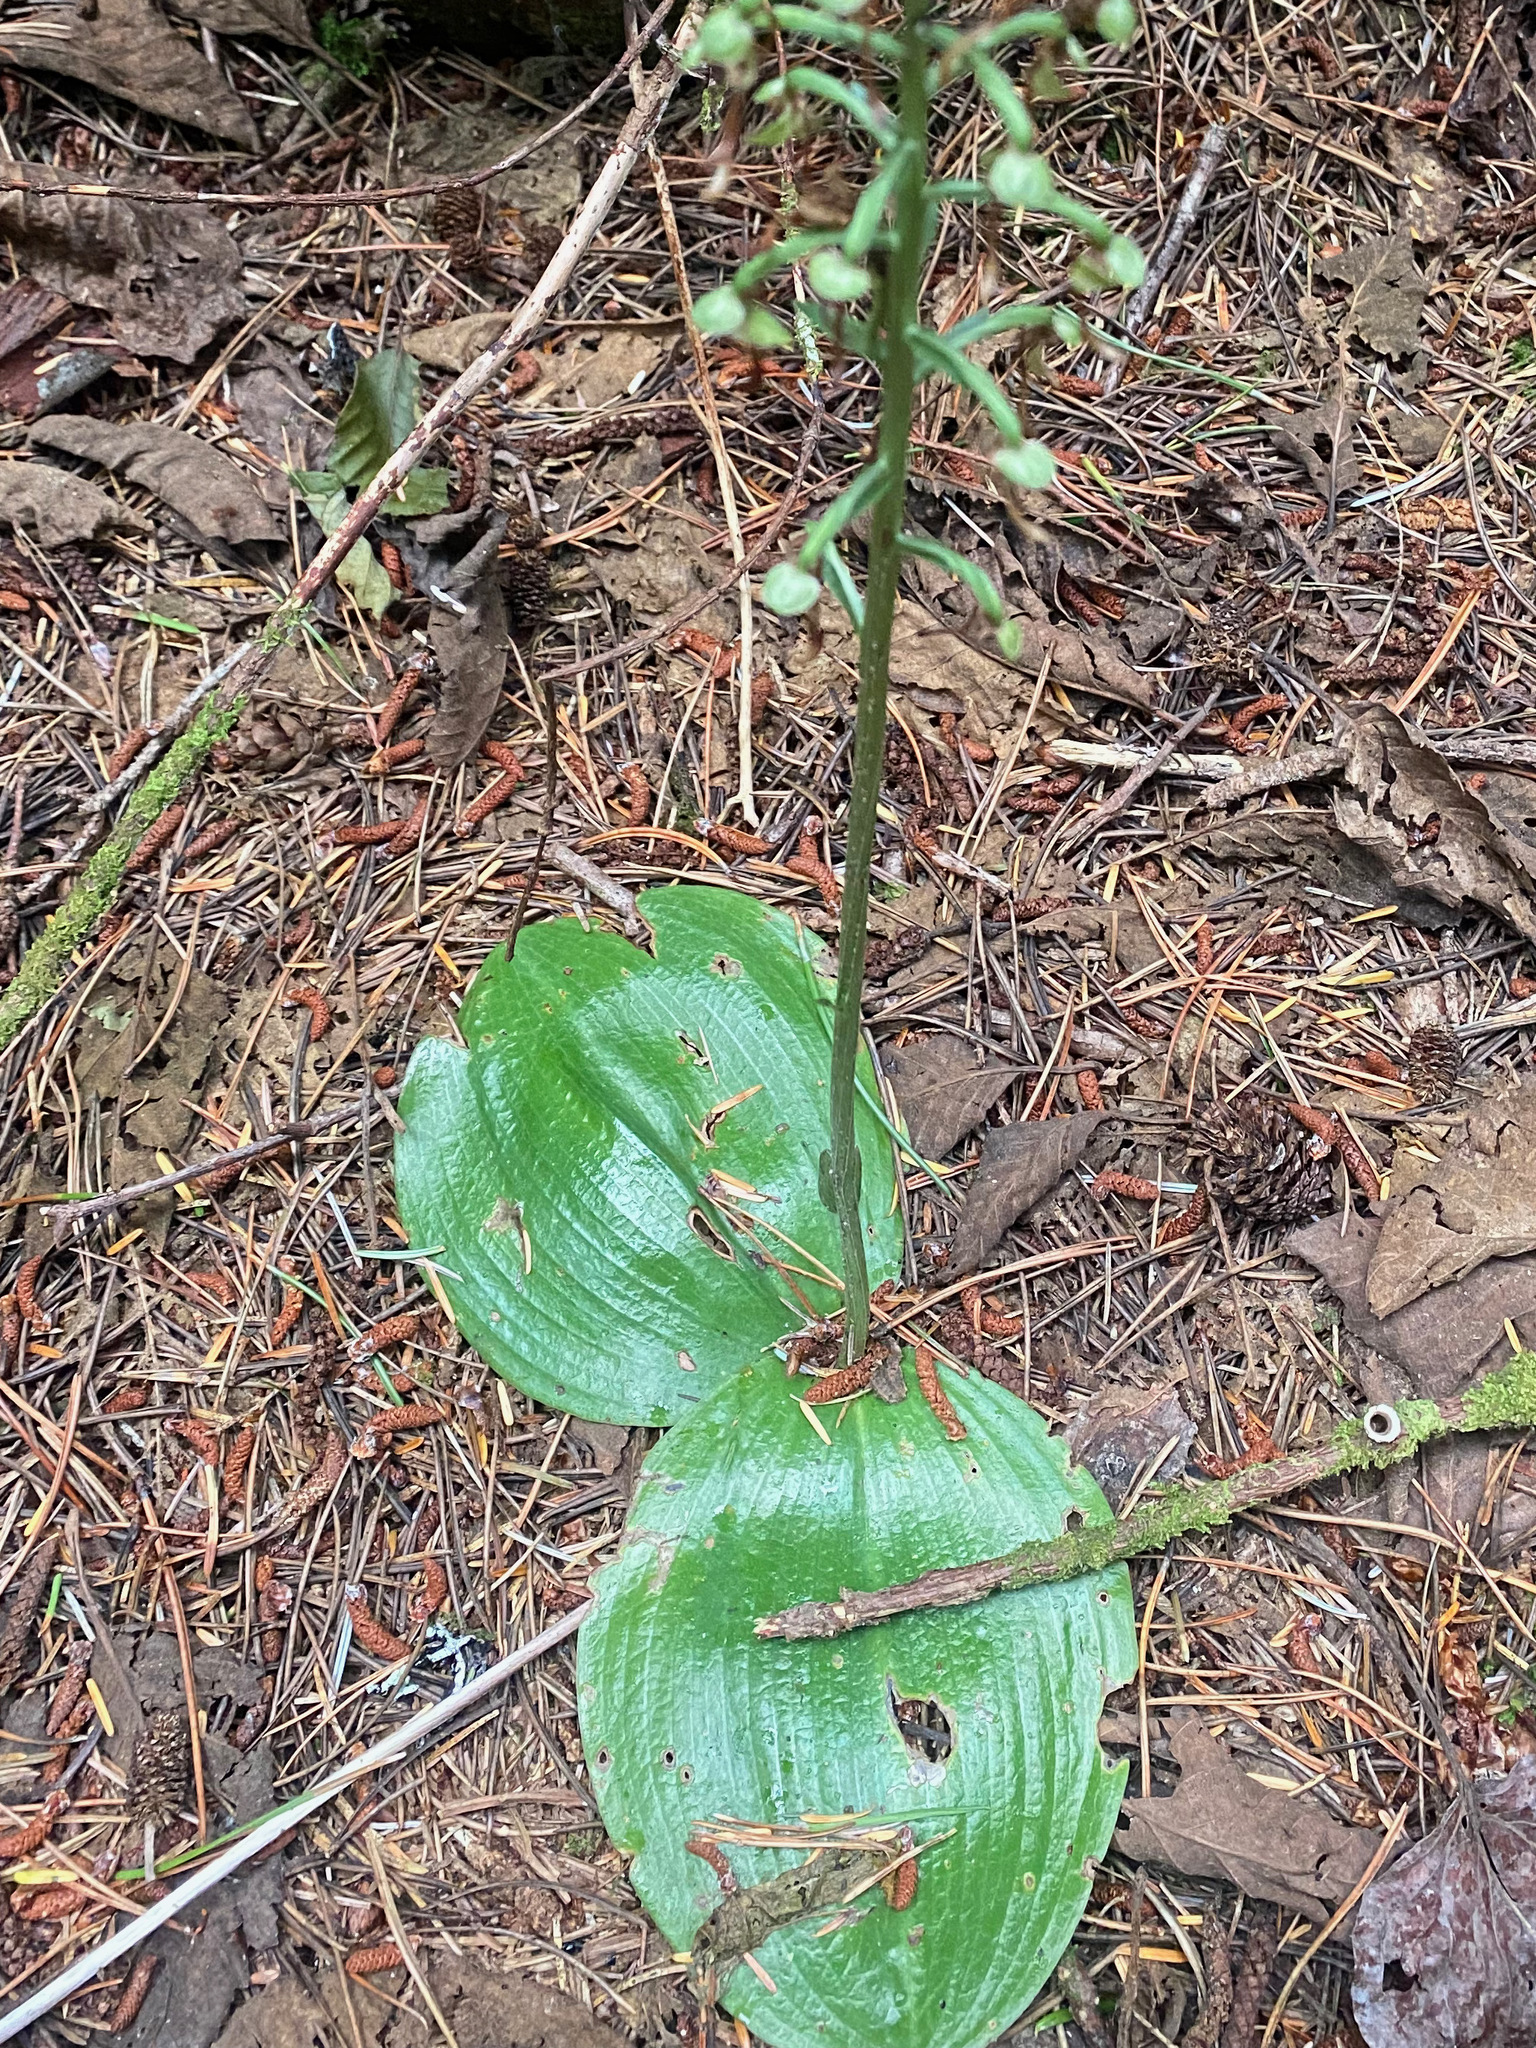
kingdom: Plantae
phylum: Tracheophyta
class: Liliopsida
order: Asparagales
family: Orchidaceae
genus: Platanthera
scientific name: Platanthera orbiculata
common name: Large round-leaved orchid
